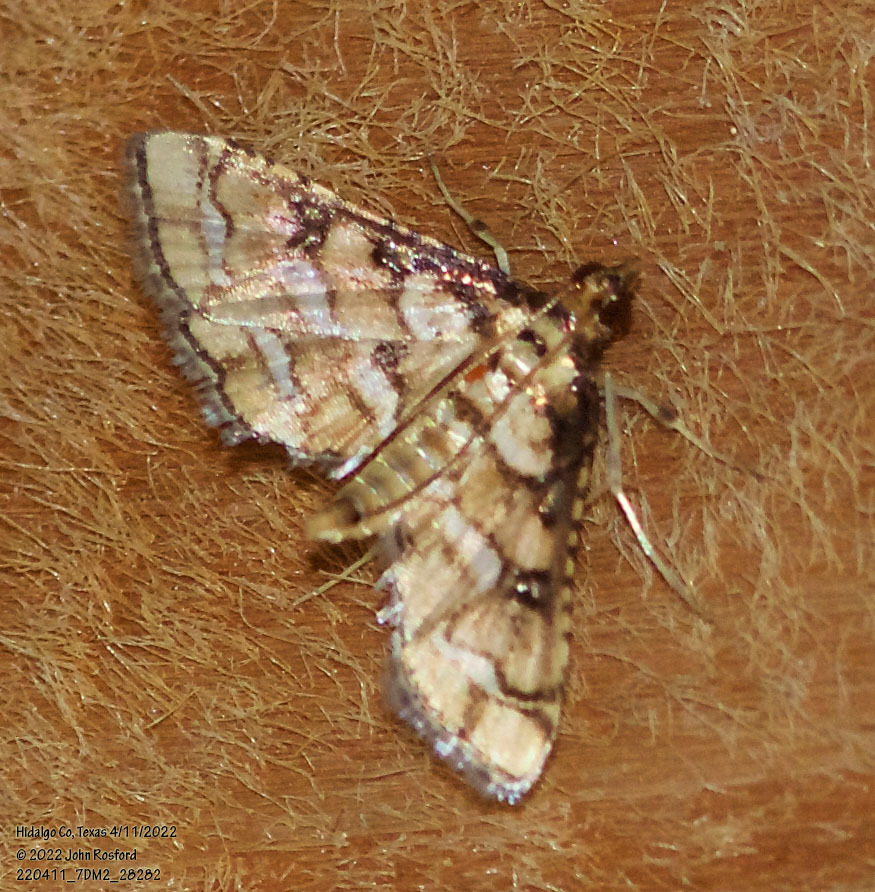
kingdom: Animalia
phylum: Arthropoda
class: Insecta
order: Lepidoptera
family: Crambidae
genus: Hileithia
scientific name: Hileithia magualis
